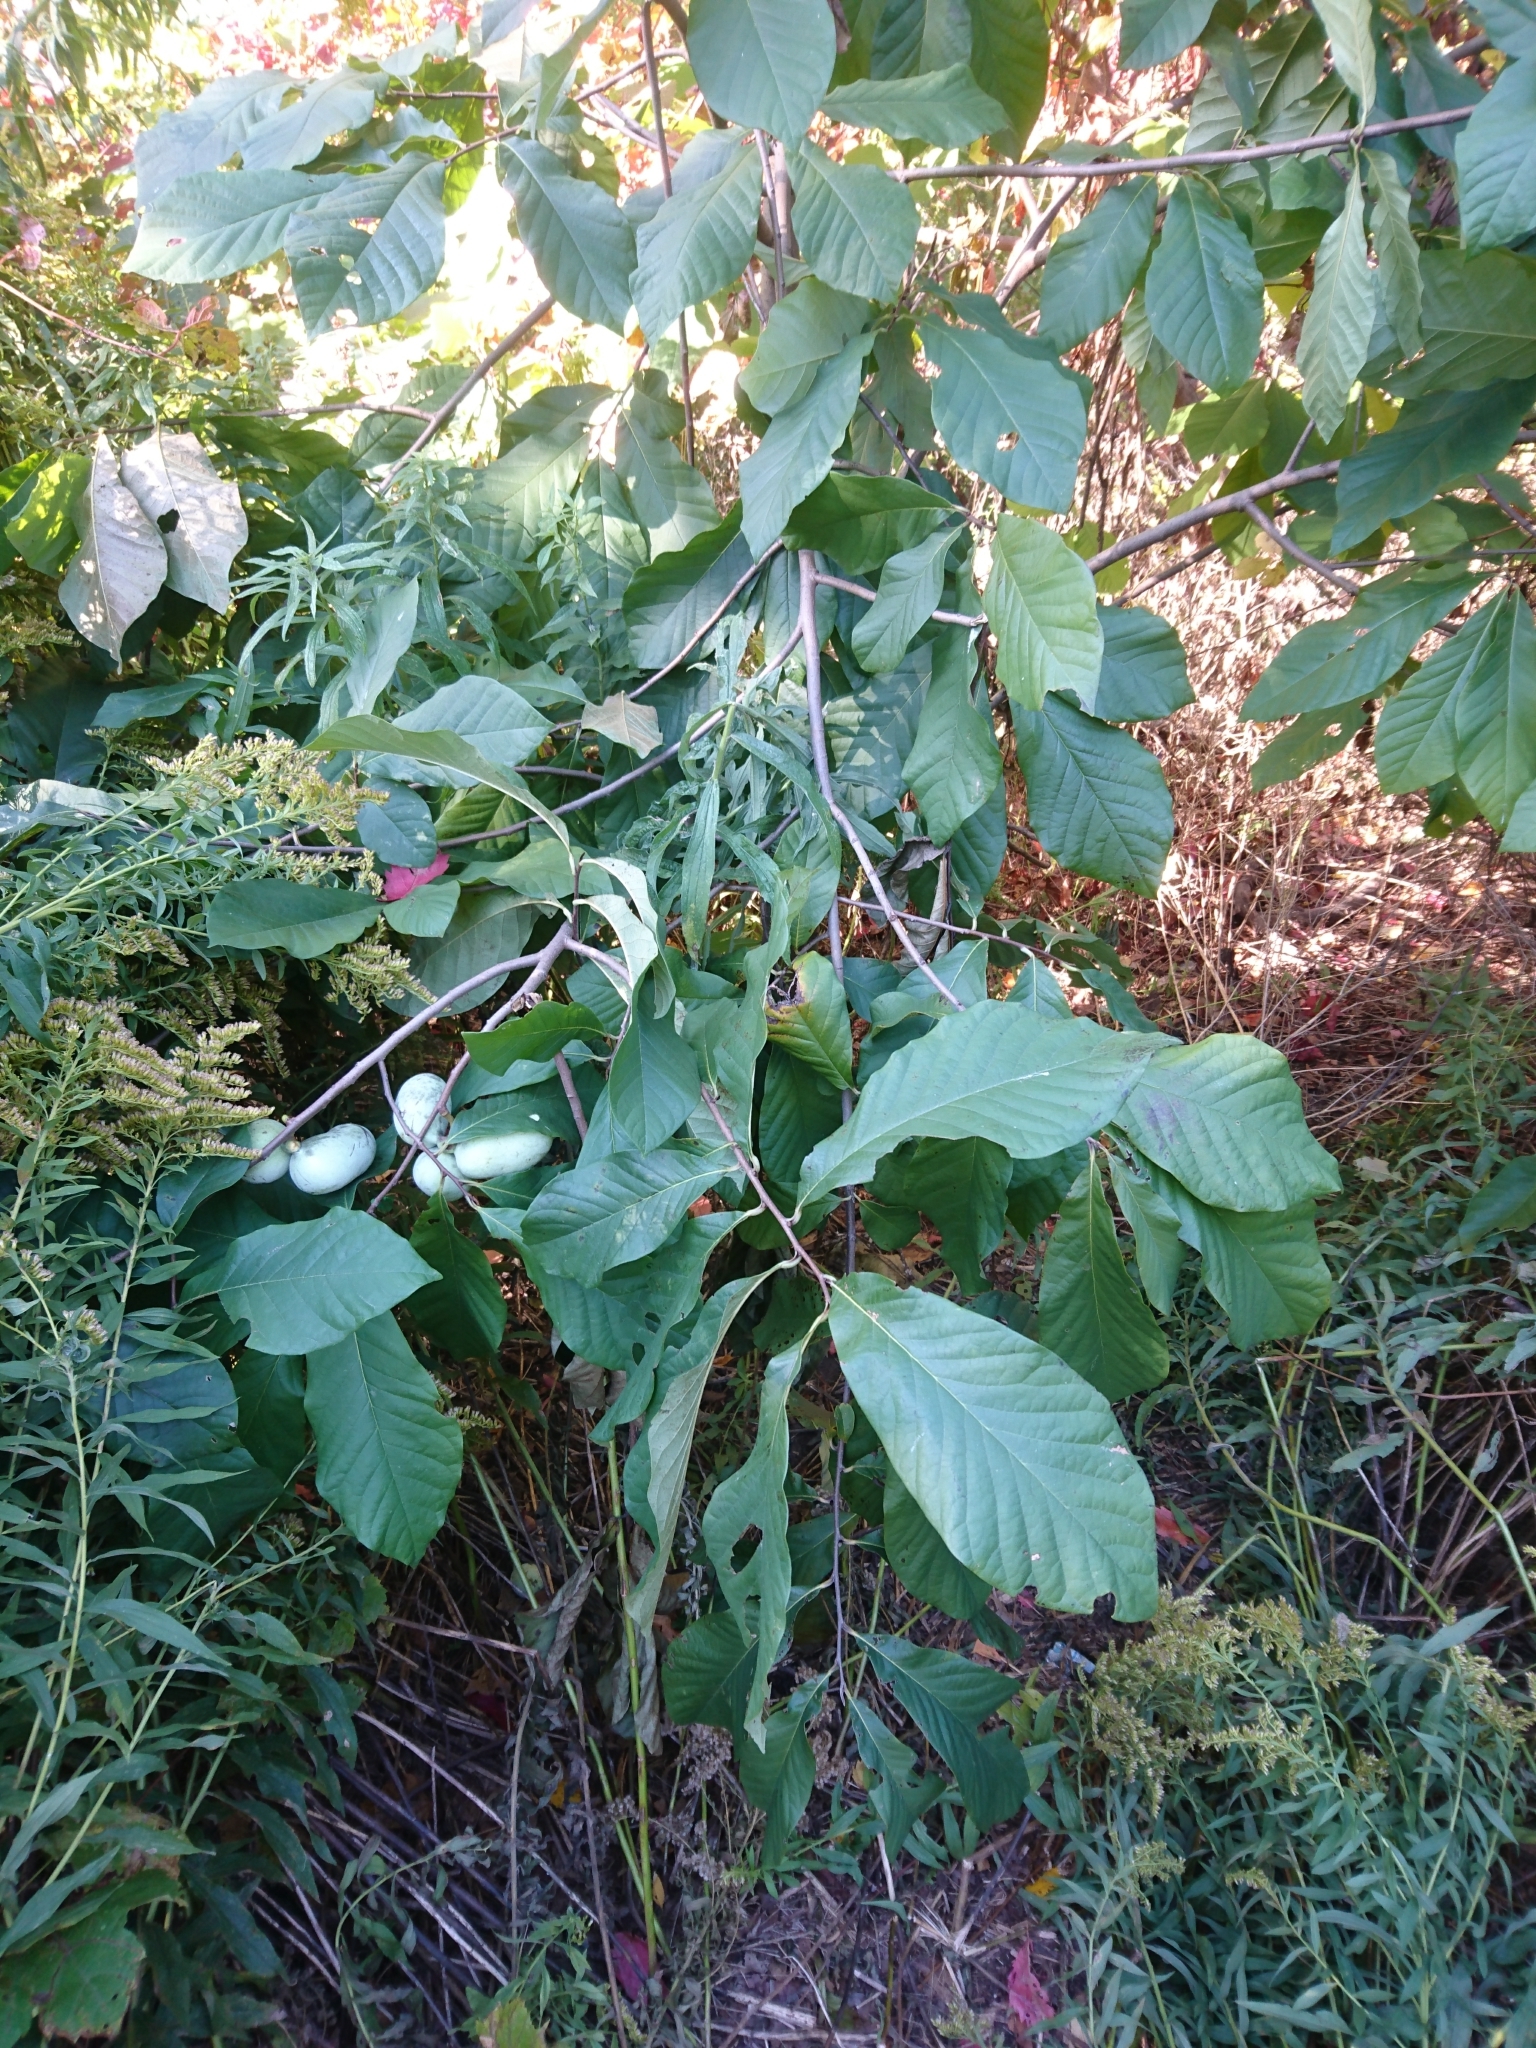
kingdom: Plantae
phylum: Tracheophyta
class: Magnoliopsida
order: Magnoliales
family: Annonaceae
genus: Asimina
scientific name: Asimina triloba
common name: Dog-banana
